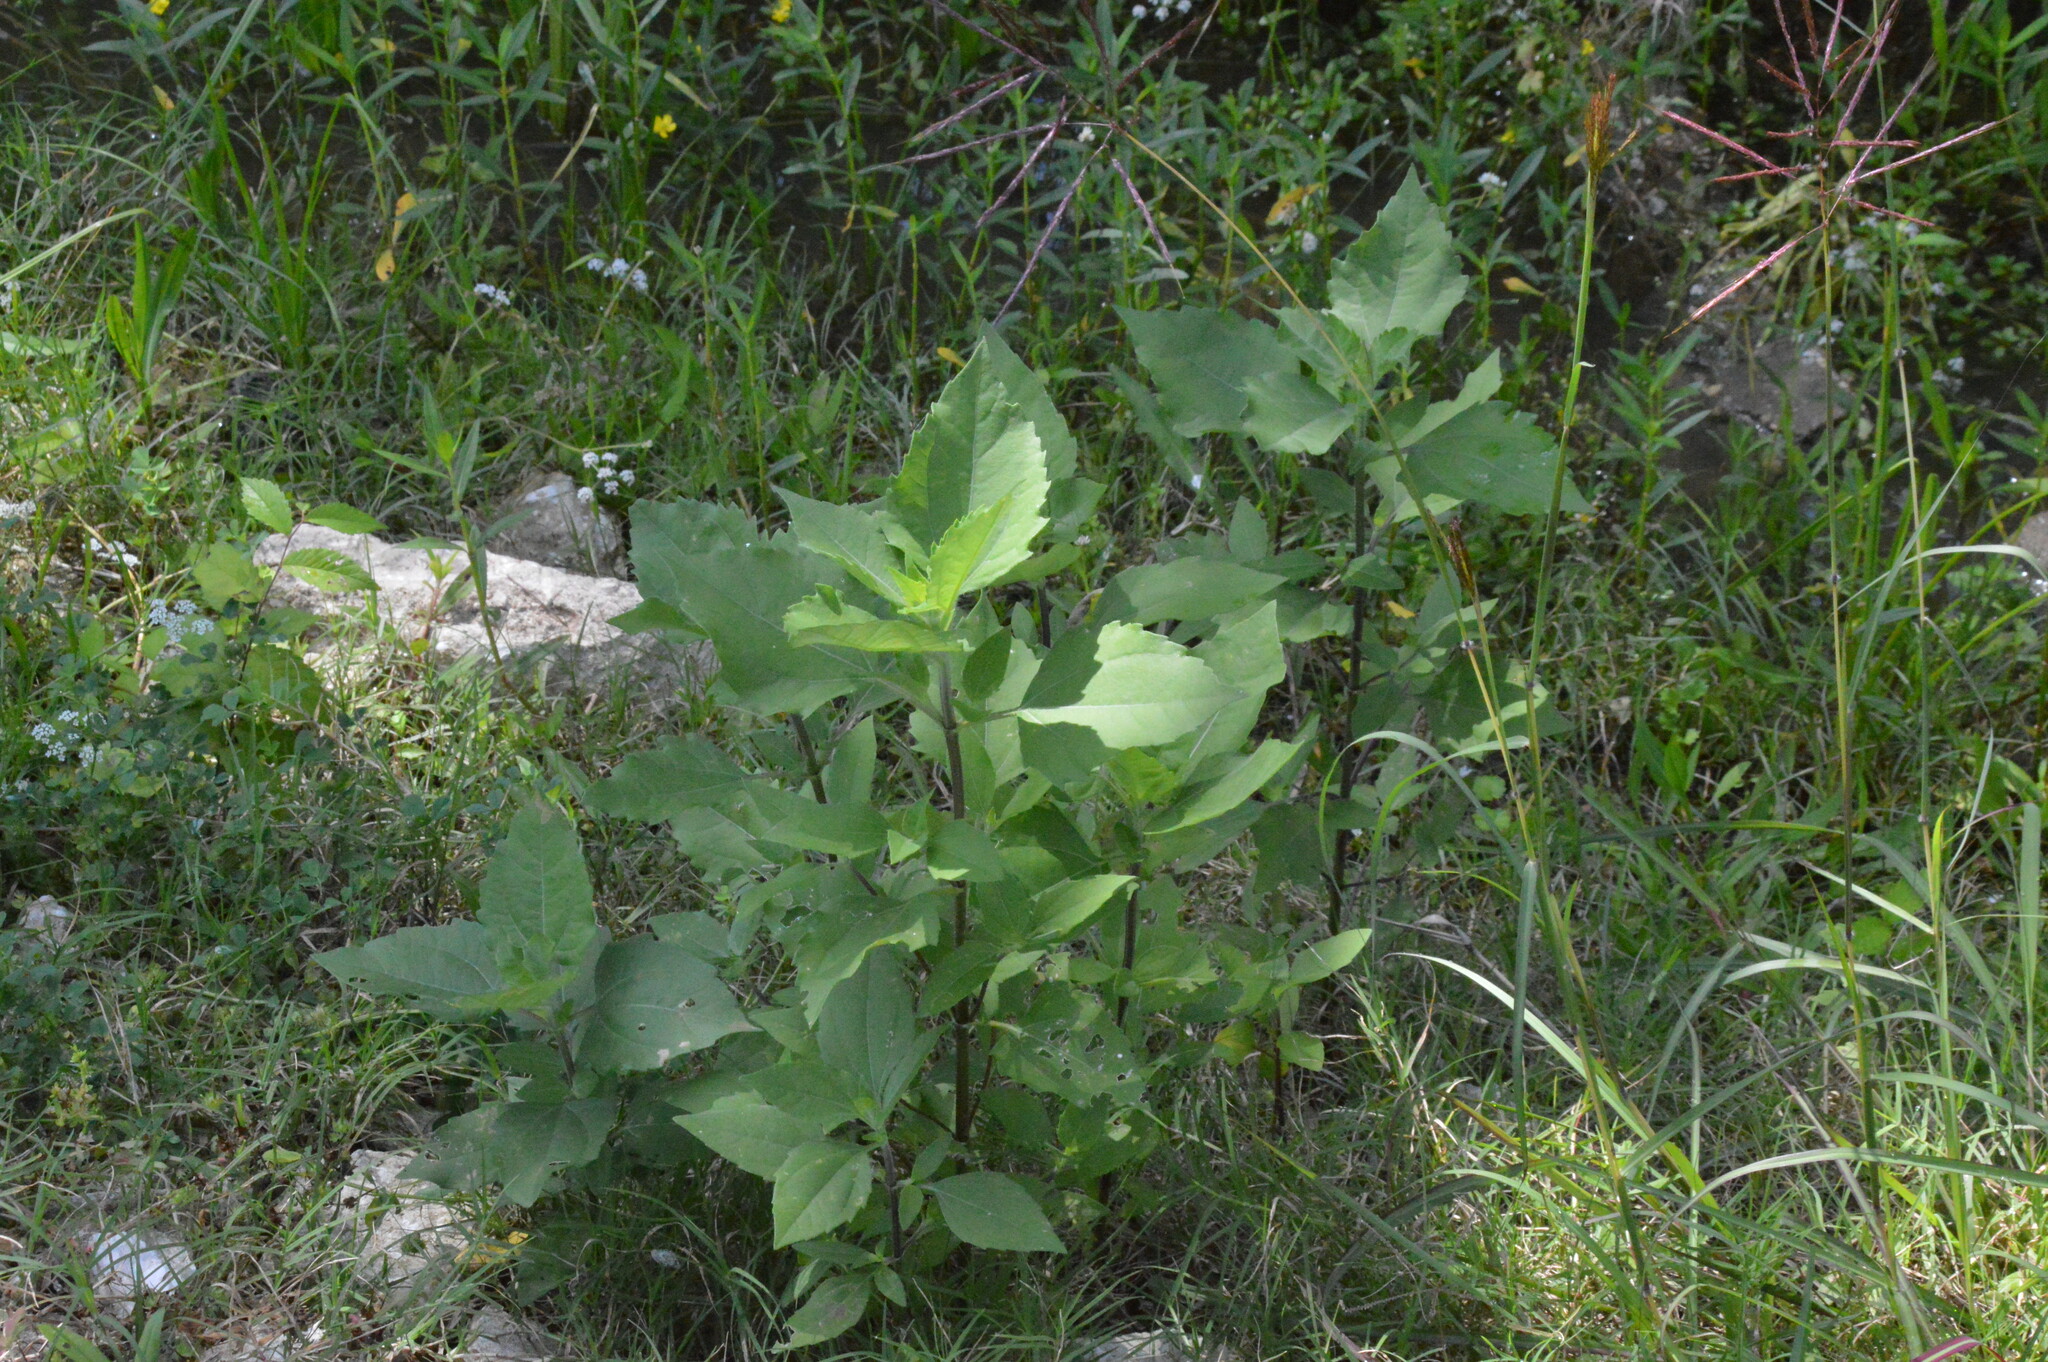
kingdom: Plantae
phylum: Tracheophyta
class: Magnoliopsida
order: Asterales
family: Asteraceae
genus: Iva
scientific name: Iva annua
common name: Marsh-elder
